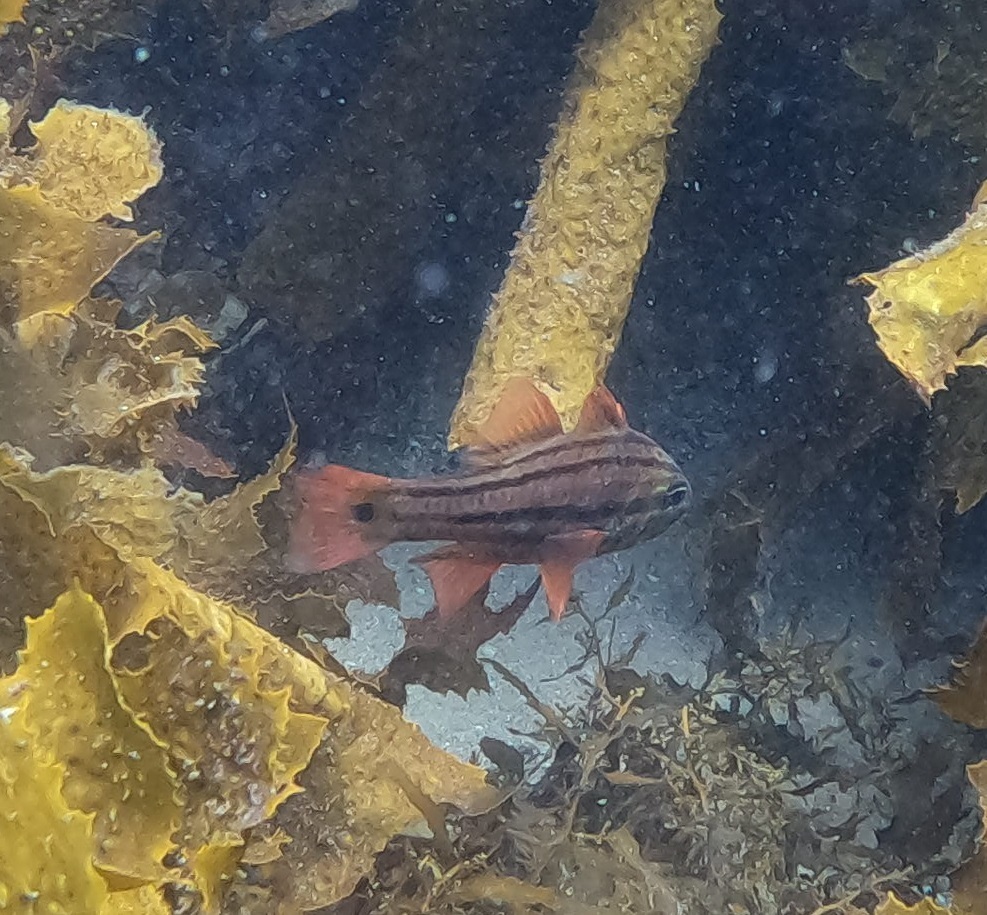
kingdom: Animalia
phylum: Chordata
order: Perciformes
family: Apogonidae
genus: Ostorhinchus
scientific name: Ostorhinchus limenus
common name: Four-banded soldierfish
